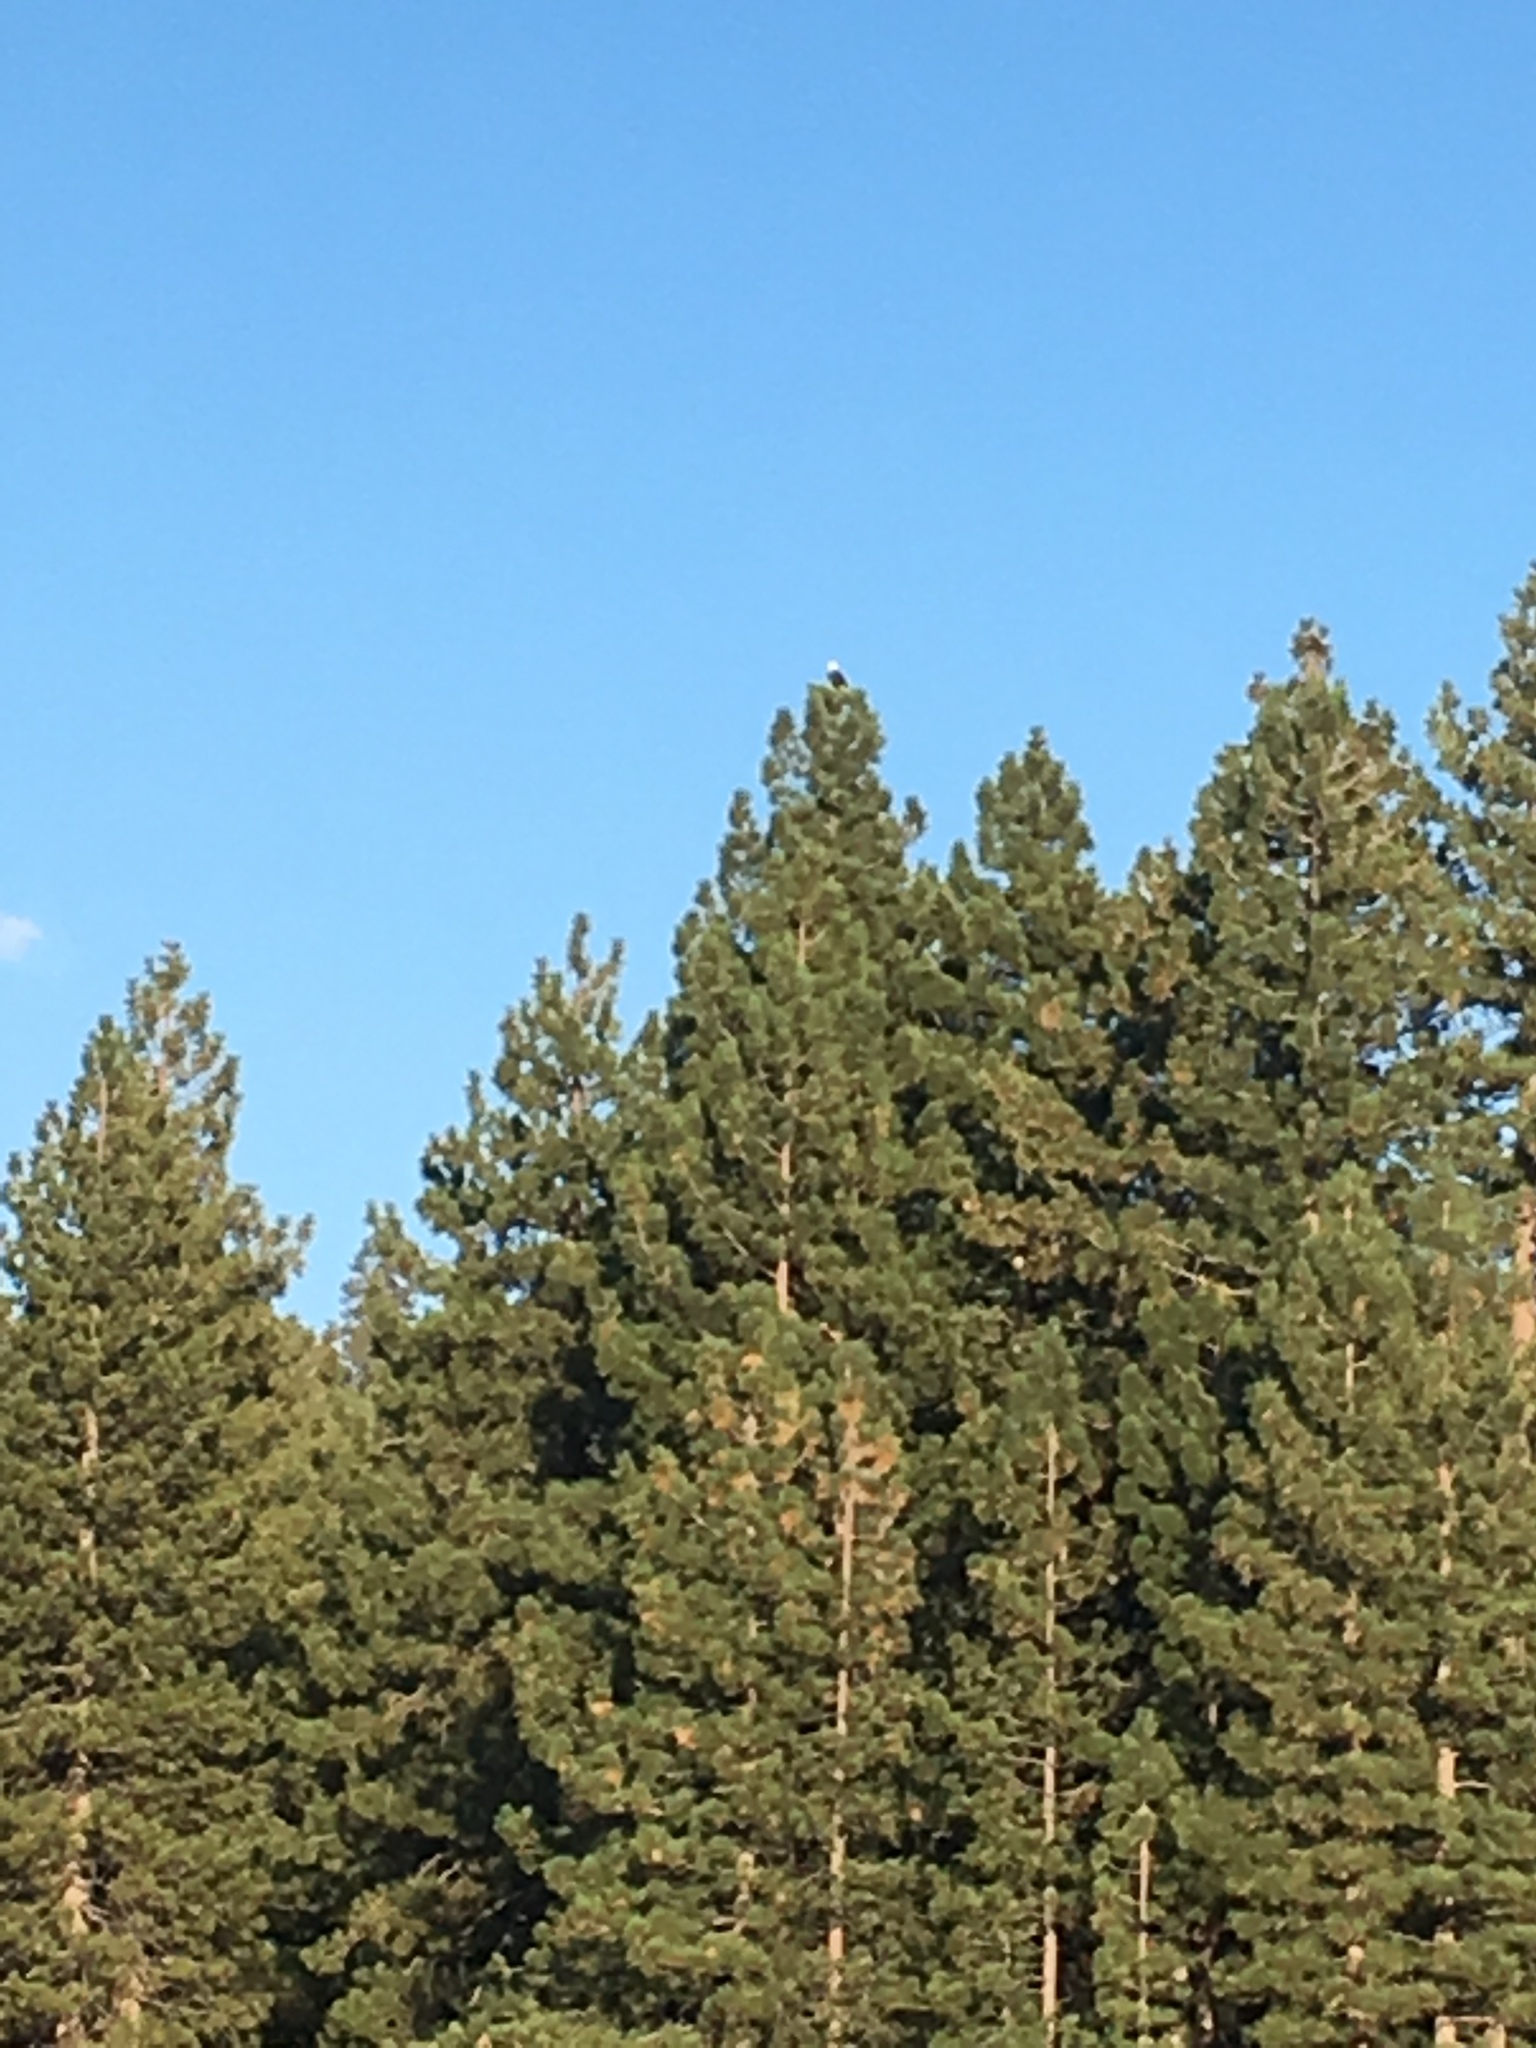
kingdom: Animalia
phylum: Chordata
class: Aves
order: Accipitriformes
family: Accipitridae
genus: Haliaeetus
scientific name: Haliaeetus leucocephalus
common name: Bald eagle
